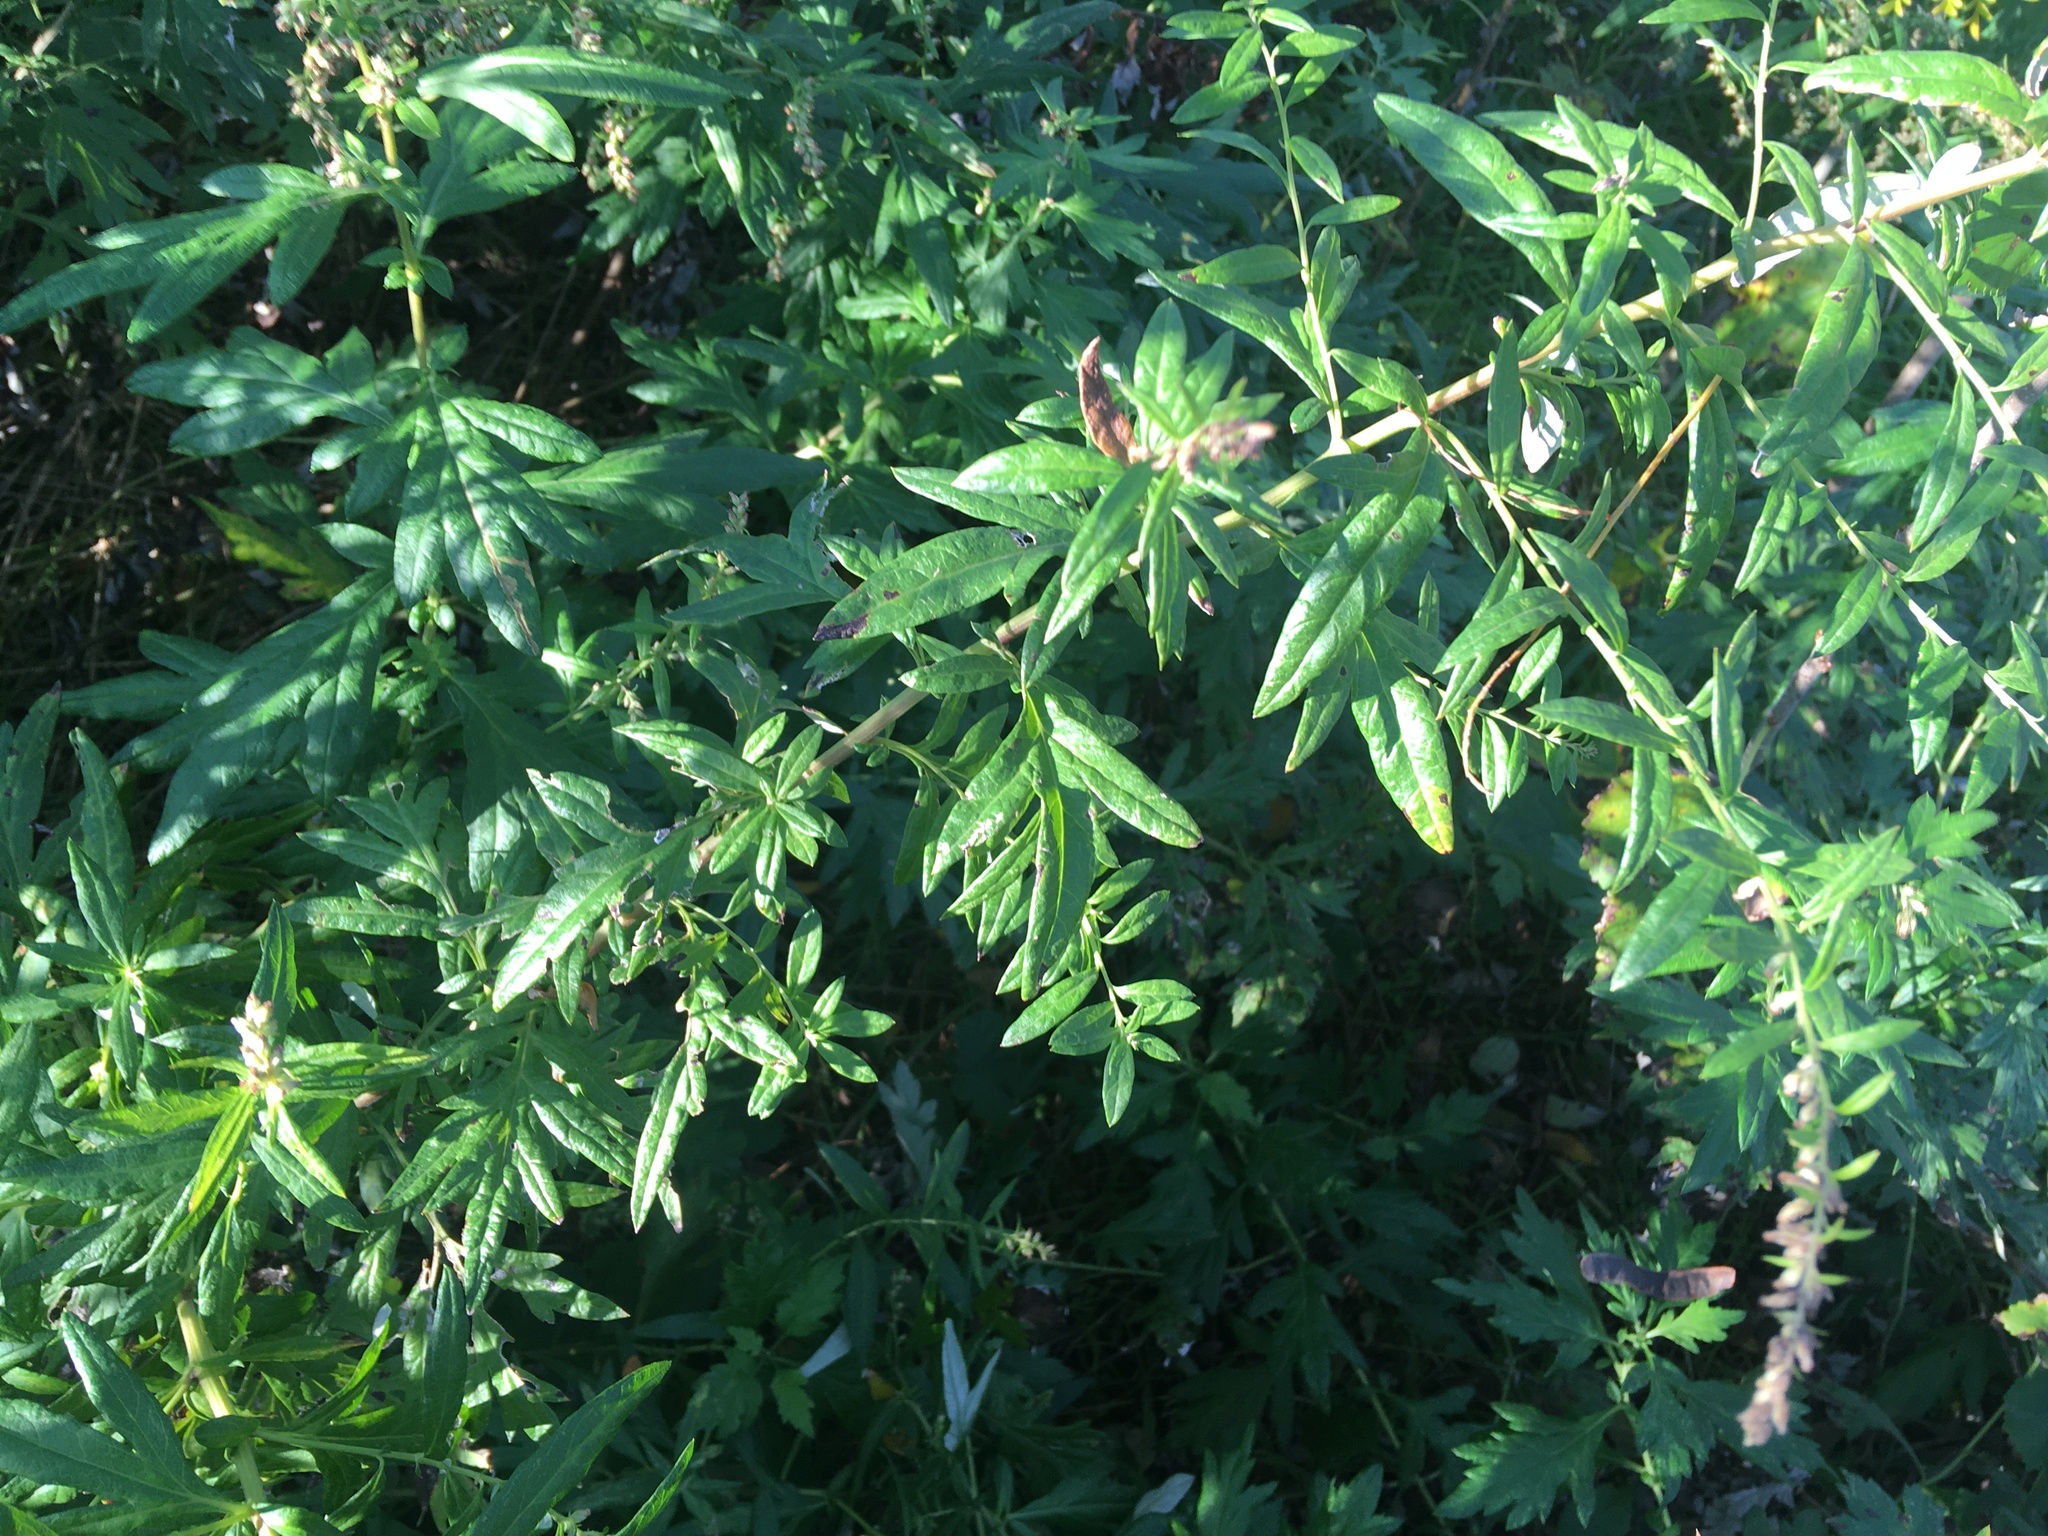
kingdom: Plantae
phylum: Tracheophyta
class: Magnoliopsida
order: Asterales
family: Asteraceae
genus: Artemisia
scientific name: Artemisia vulgaris
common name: Mugwort
